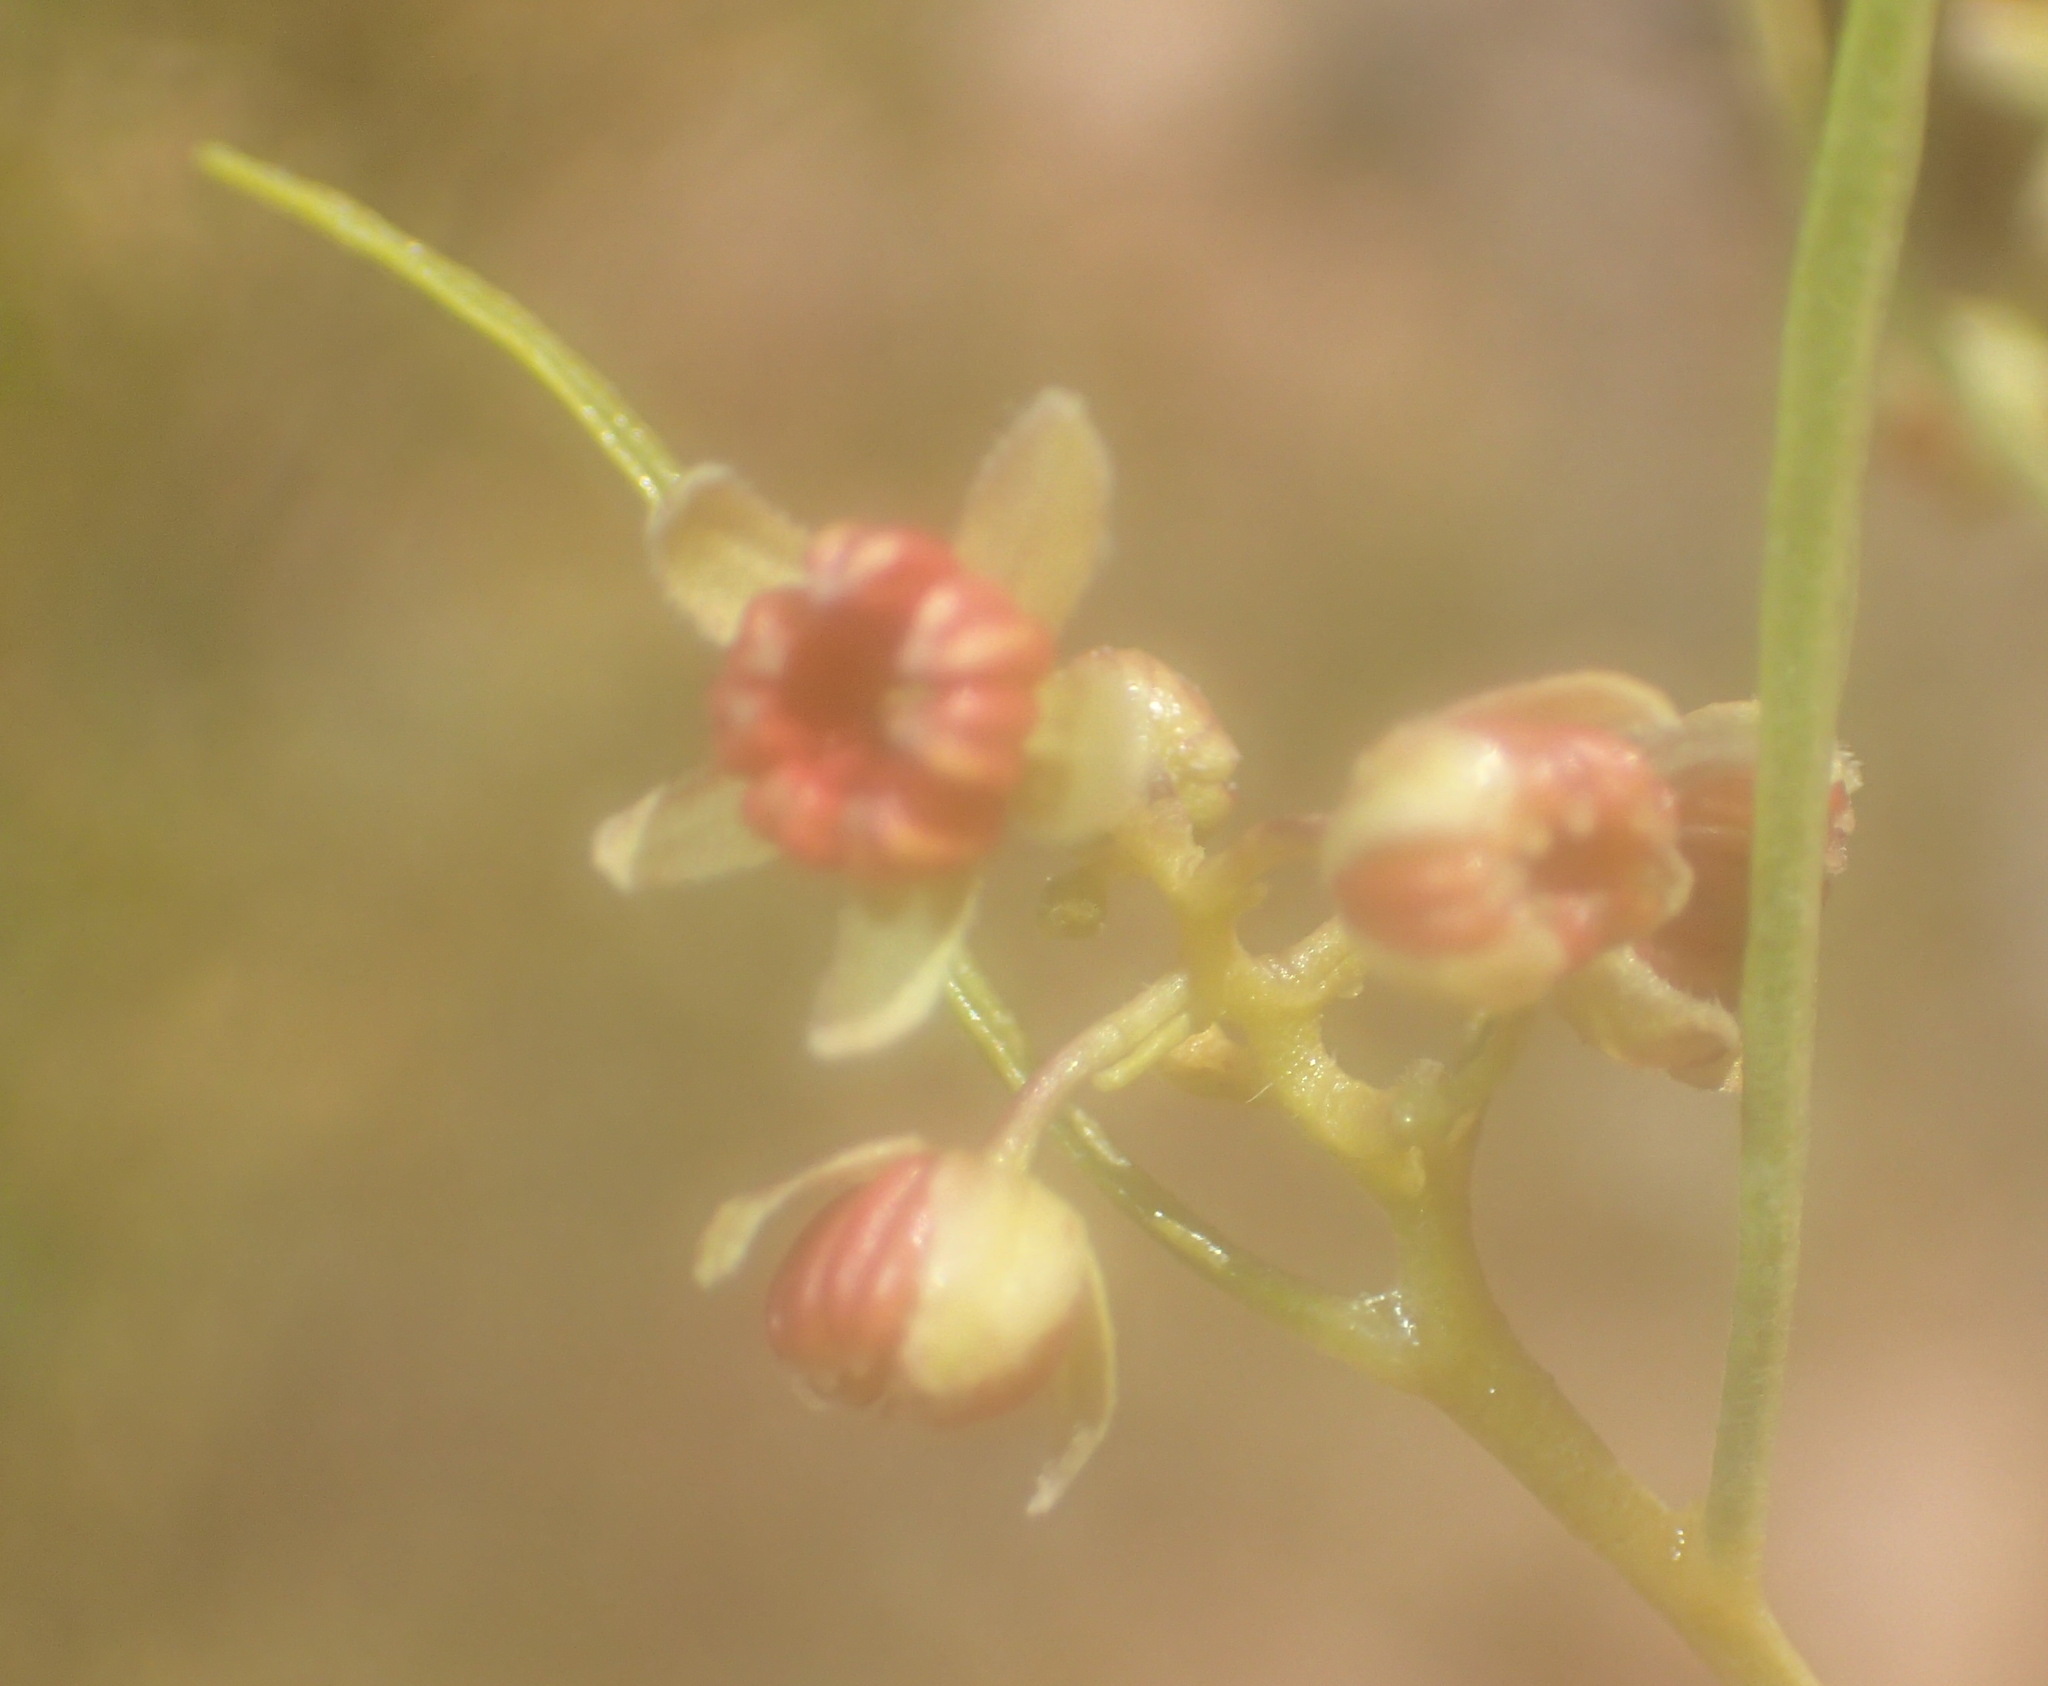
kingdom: Plantae
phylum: Tracheophyta
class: Magnoliopsida
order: Sapindales
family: Sapindaceae
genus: Dodonaea
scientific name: Dodonaea viscosa
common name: Hopbush
